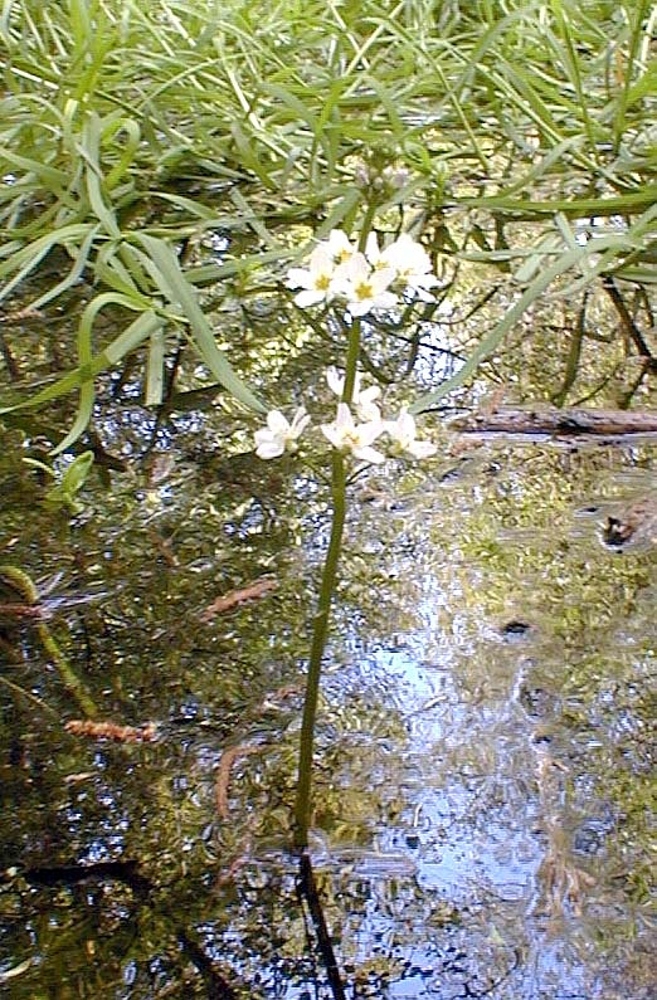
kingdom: Plantae
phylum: Tracheophyta
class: Magnoliopsida
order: Ericales
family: Primulaceae
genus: Hottonia
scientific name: Hottonia palustris
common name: Water-violet
